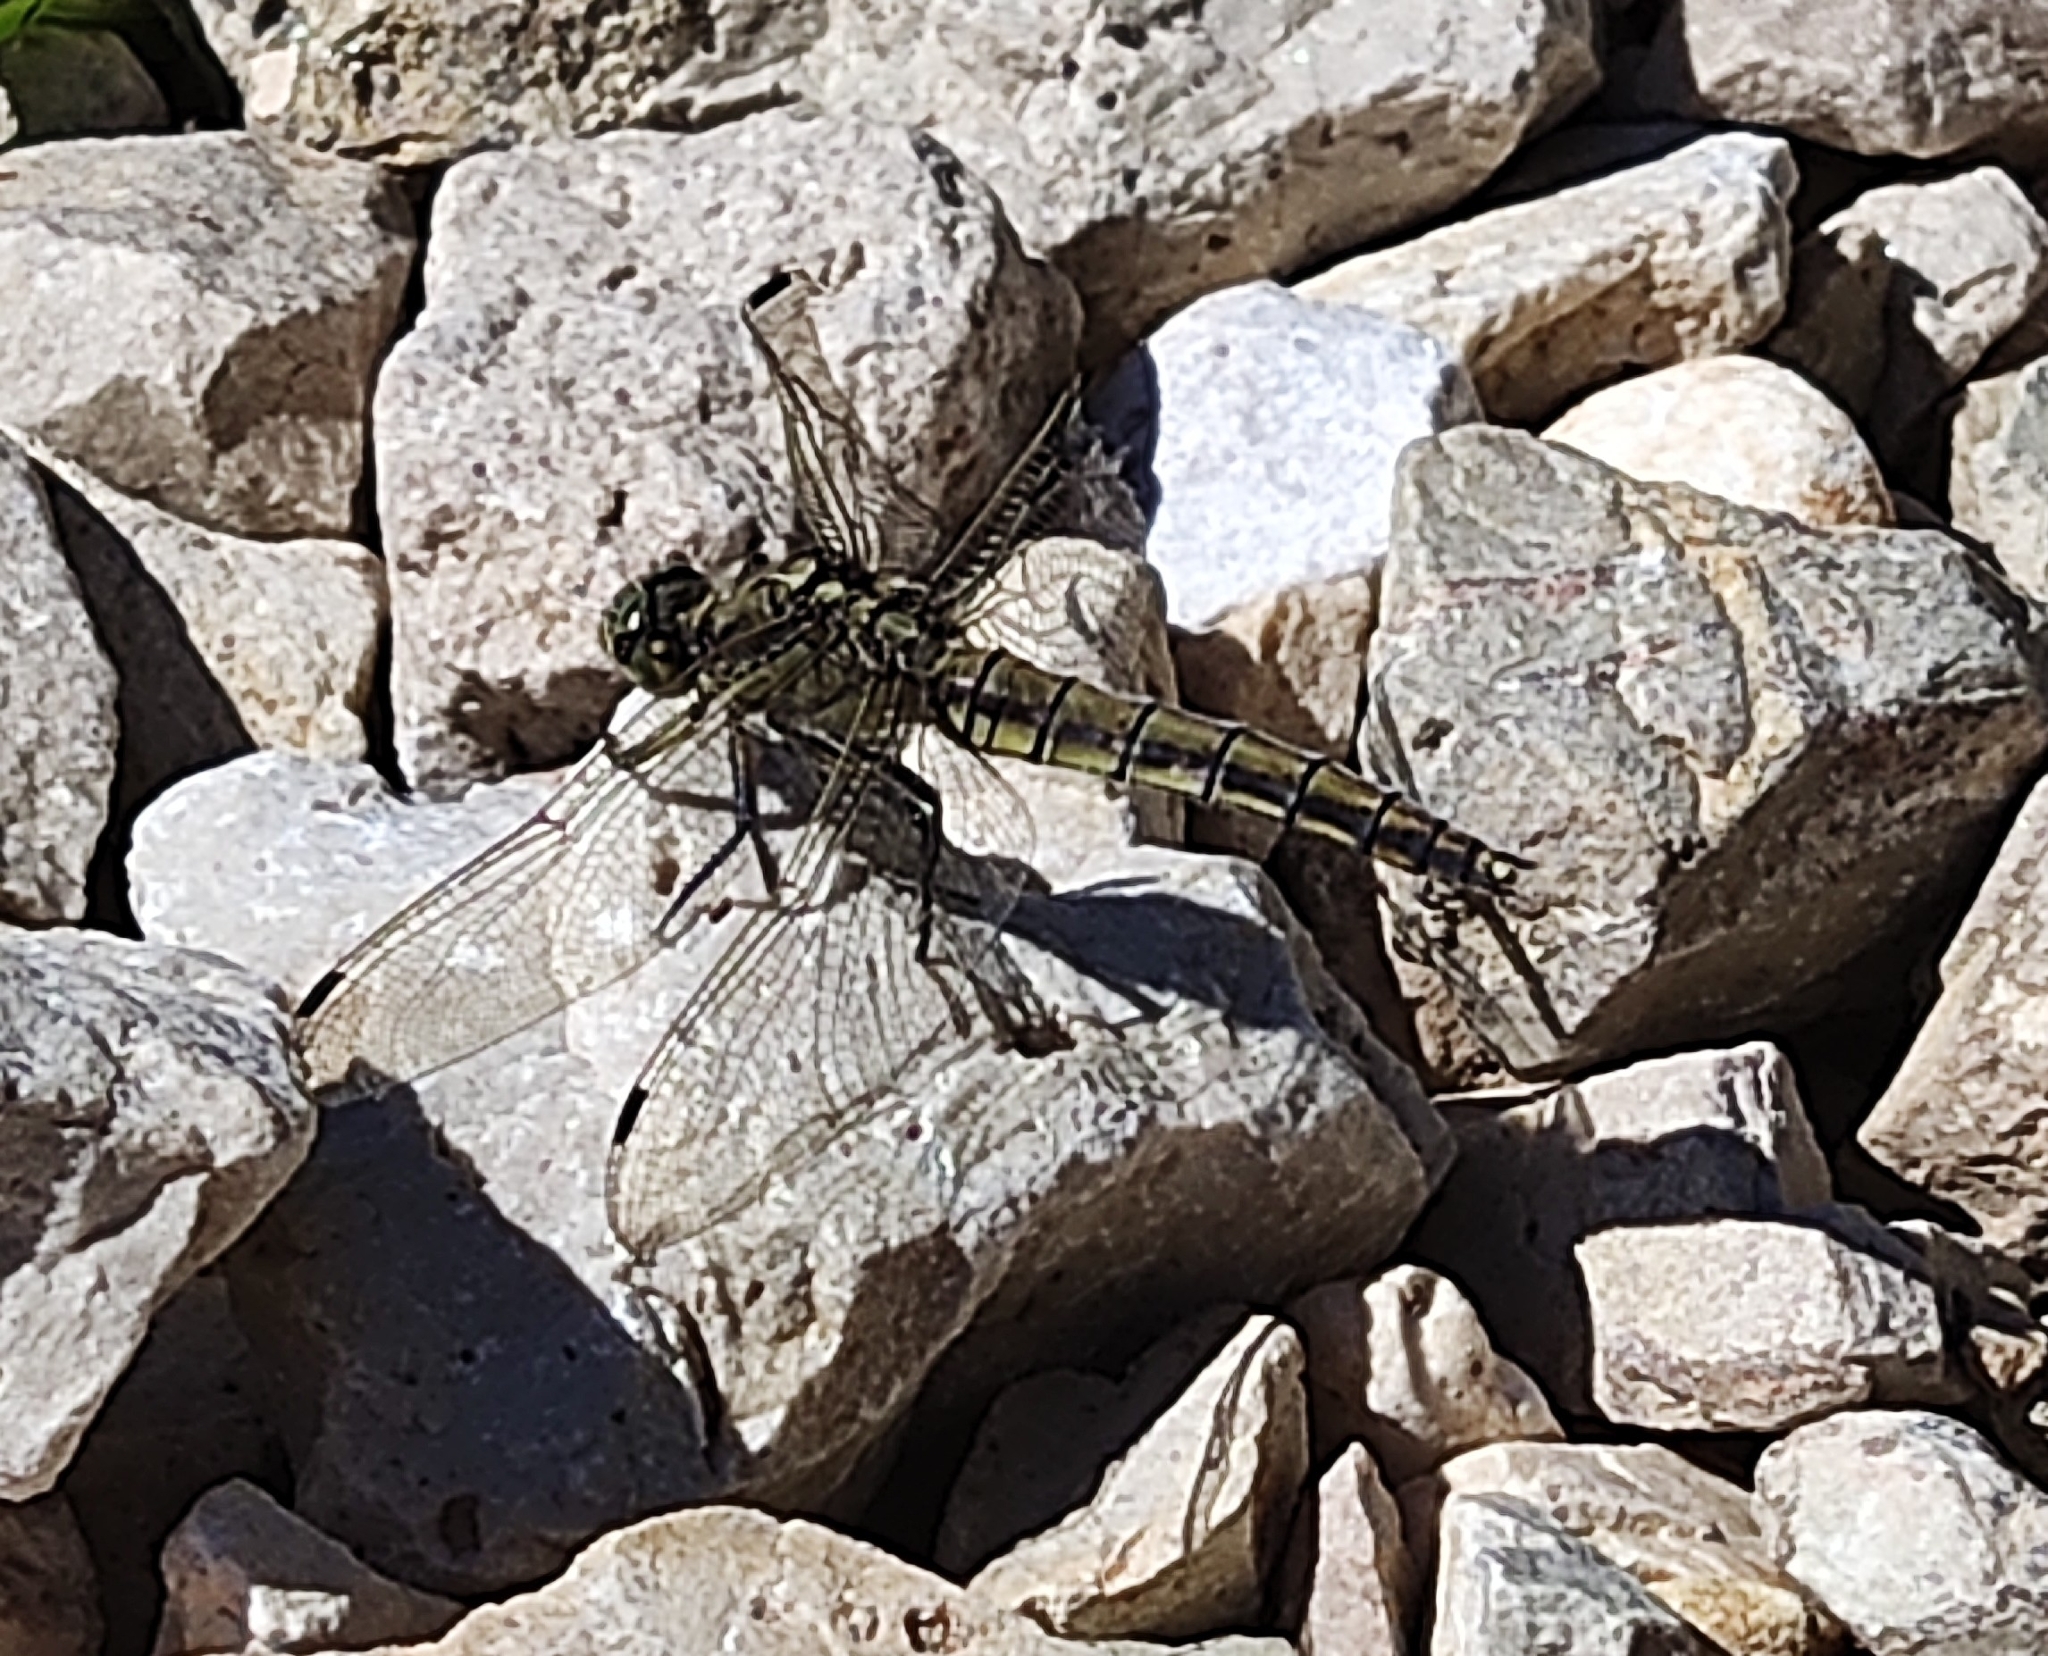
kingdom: Animalia
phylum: Arthropoda
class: Insecta
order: Odonata
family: Libellulidae
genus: Orthetrum
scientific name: Orthetrum cancellatum
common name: Black-tailed skimmer
